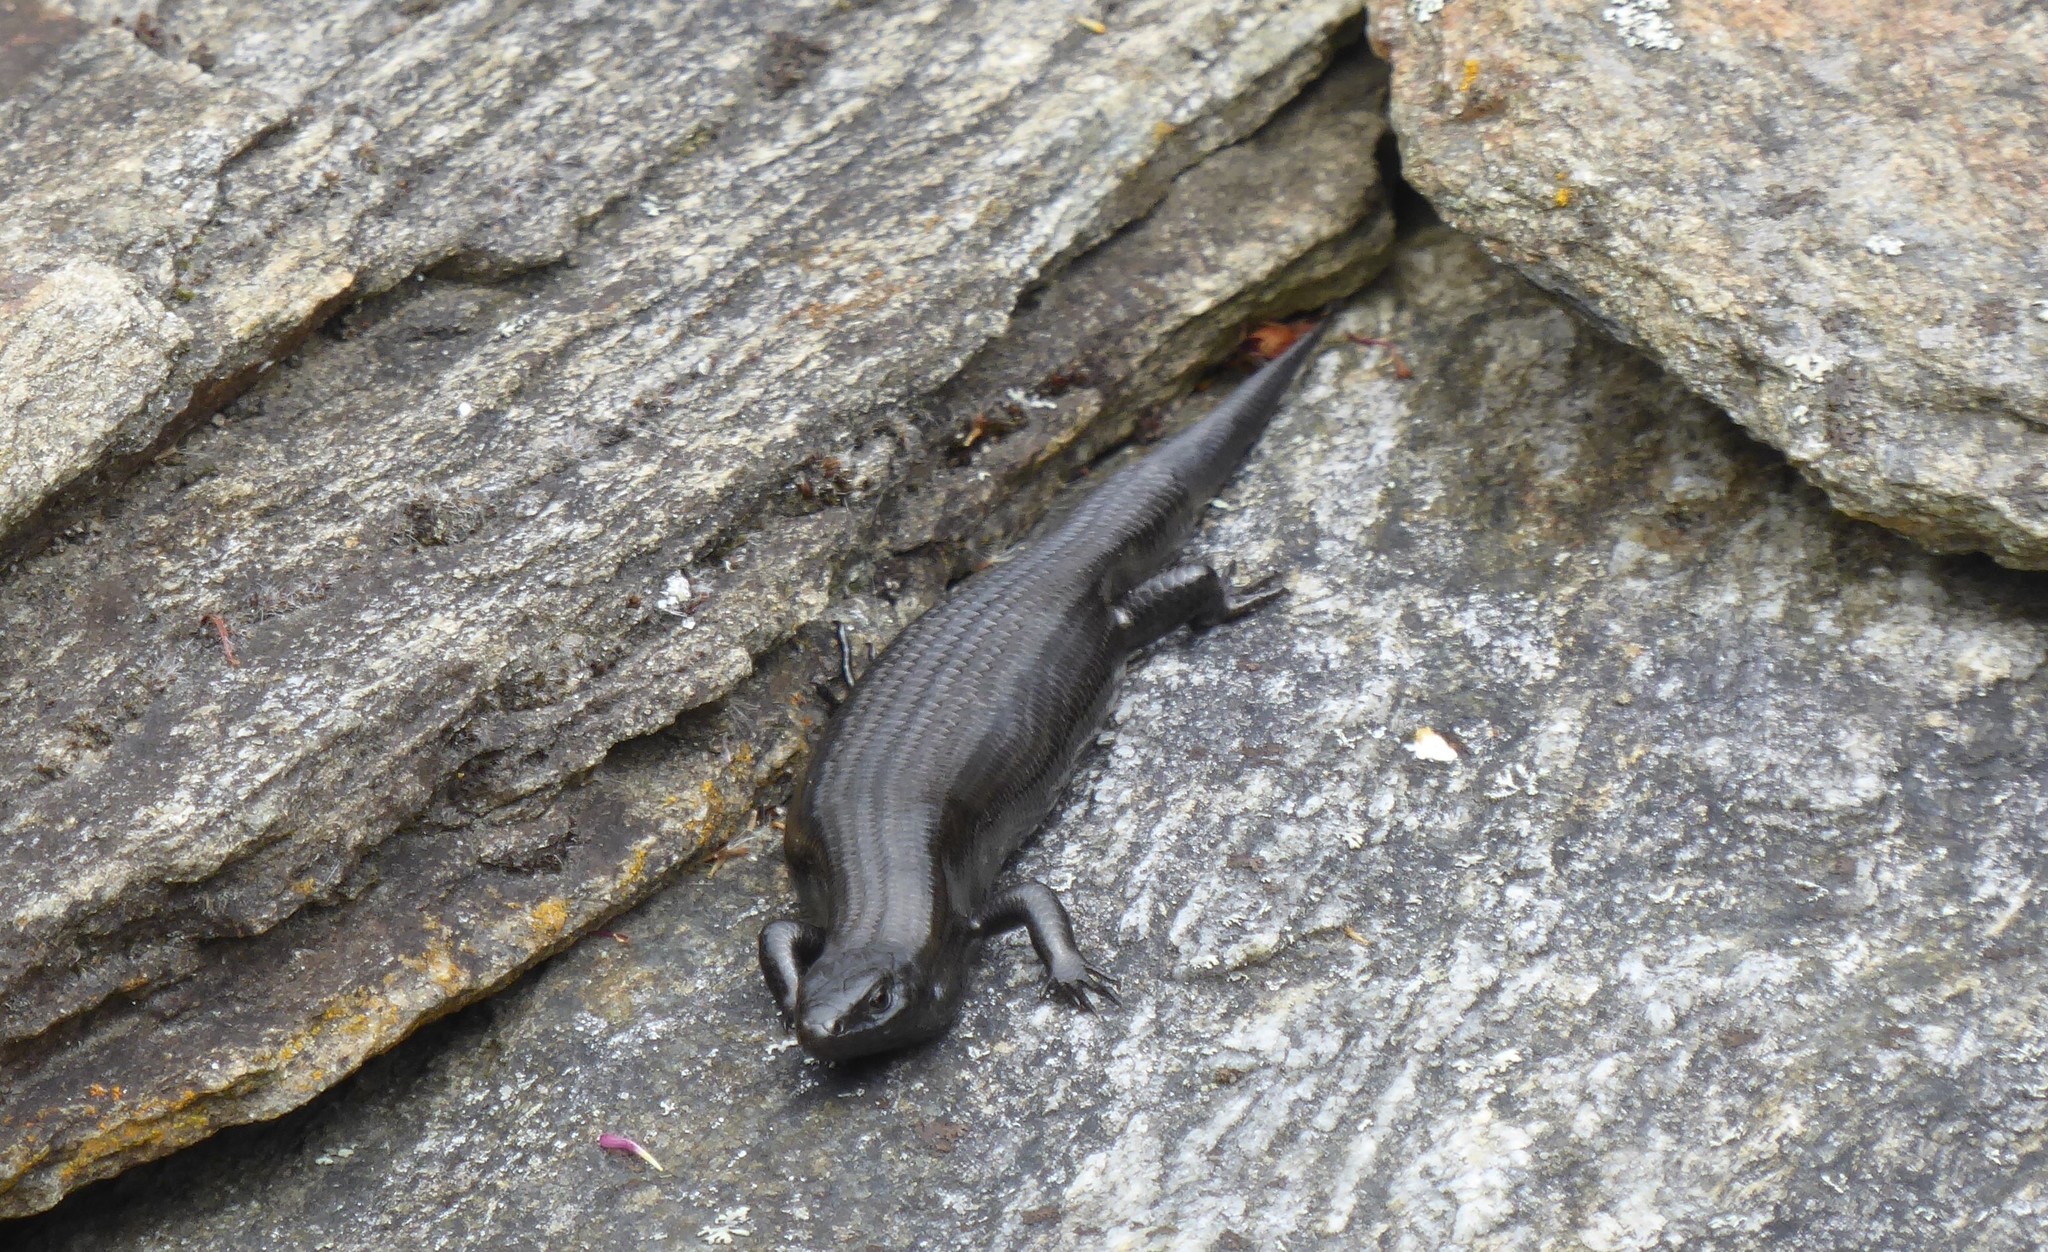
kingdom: Animalia
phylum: Chordata
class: Squamata
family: Scincidae
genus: Oligosoma
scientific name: Oligosoma polychroma
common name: Common new zealand skink
